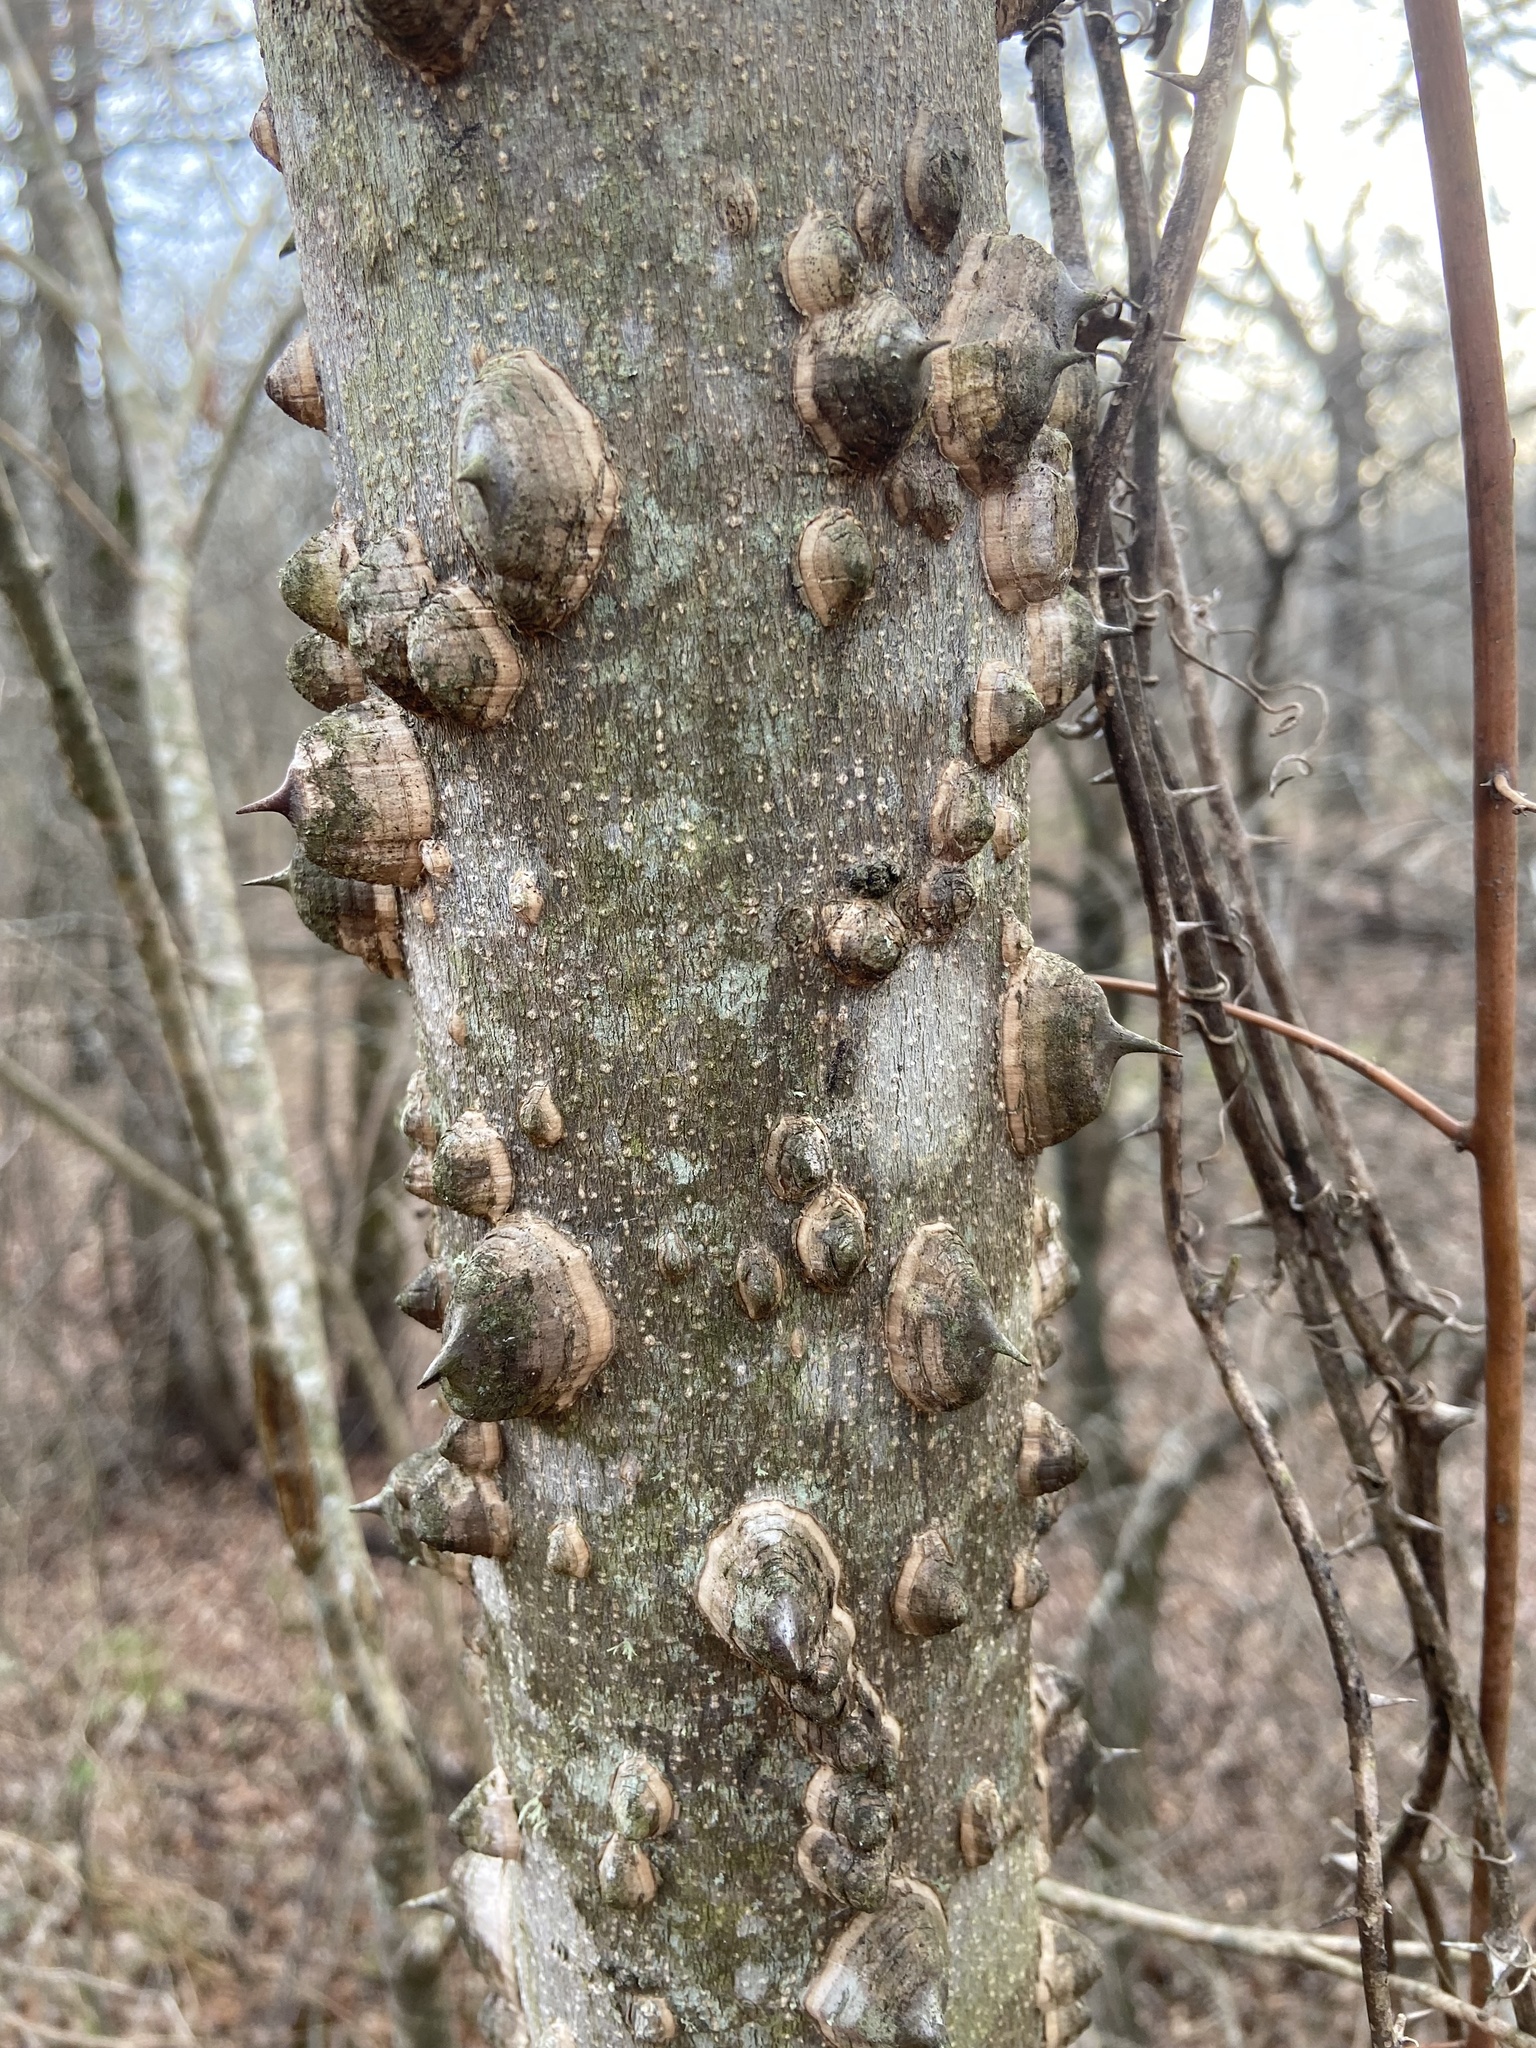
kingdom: Plantae
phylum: Tracheophyta
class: Magnoliopsida
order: Sapindales
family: Rutaceae
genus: Zanthoxylum
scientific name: Zanthoxylum clava-herculis
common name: Hercules'-club
